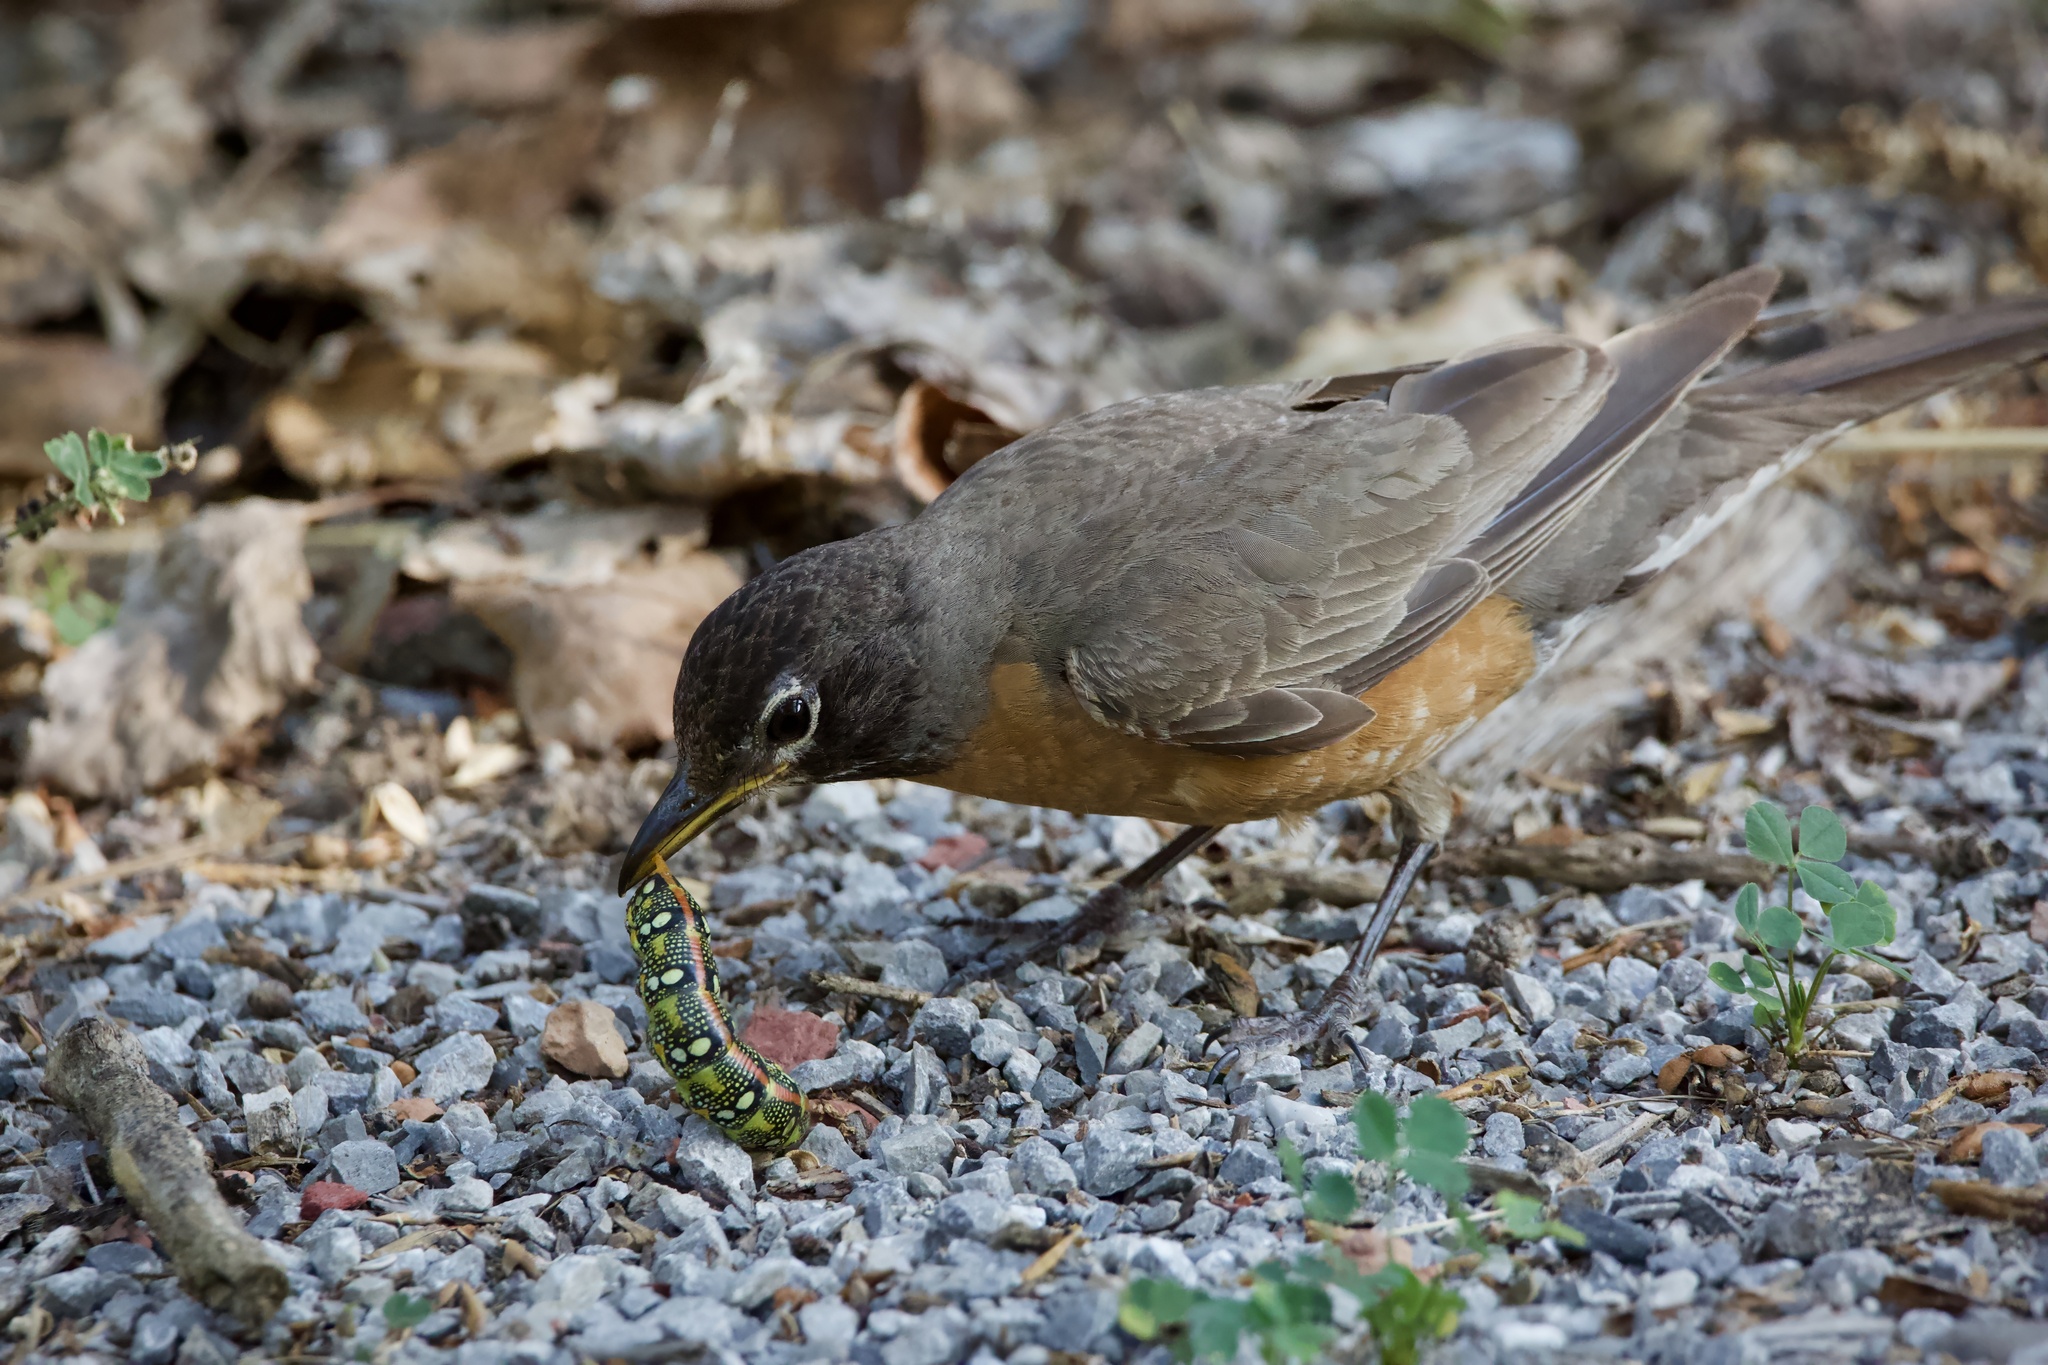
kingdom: Animalia
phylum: Chordata
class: Aves
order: Passeriformes
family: Turdidae
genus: Turdus
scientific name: Turdus migratorius
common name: American robin
